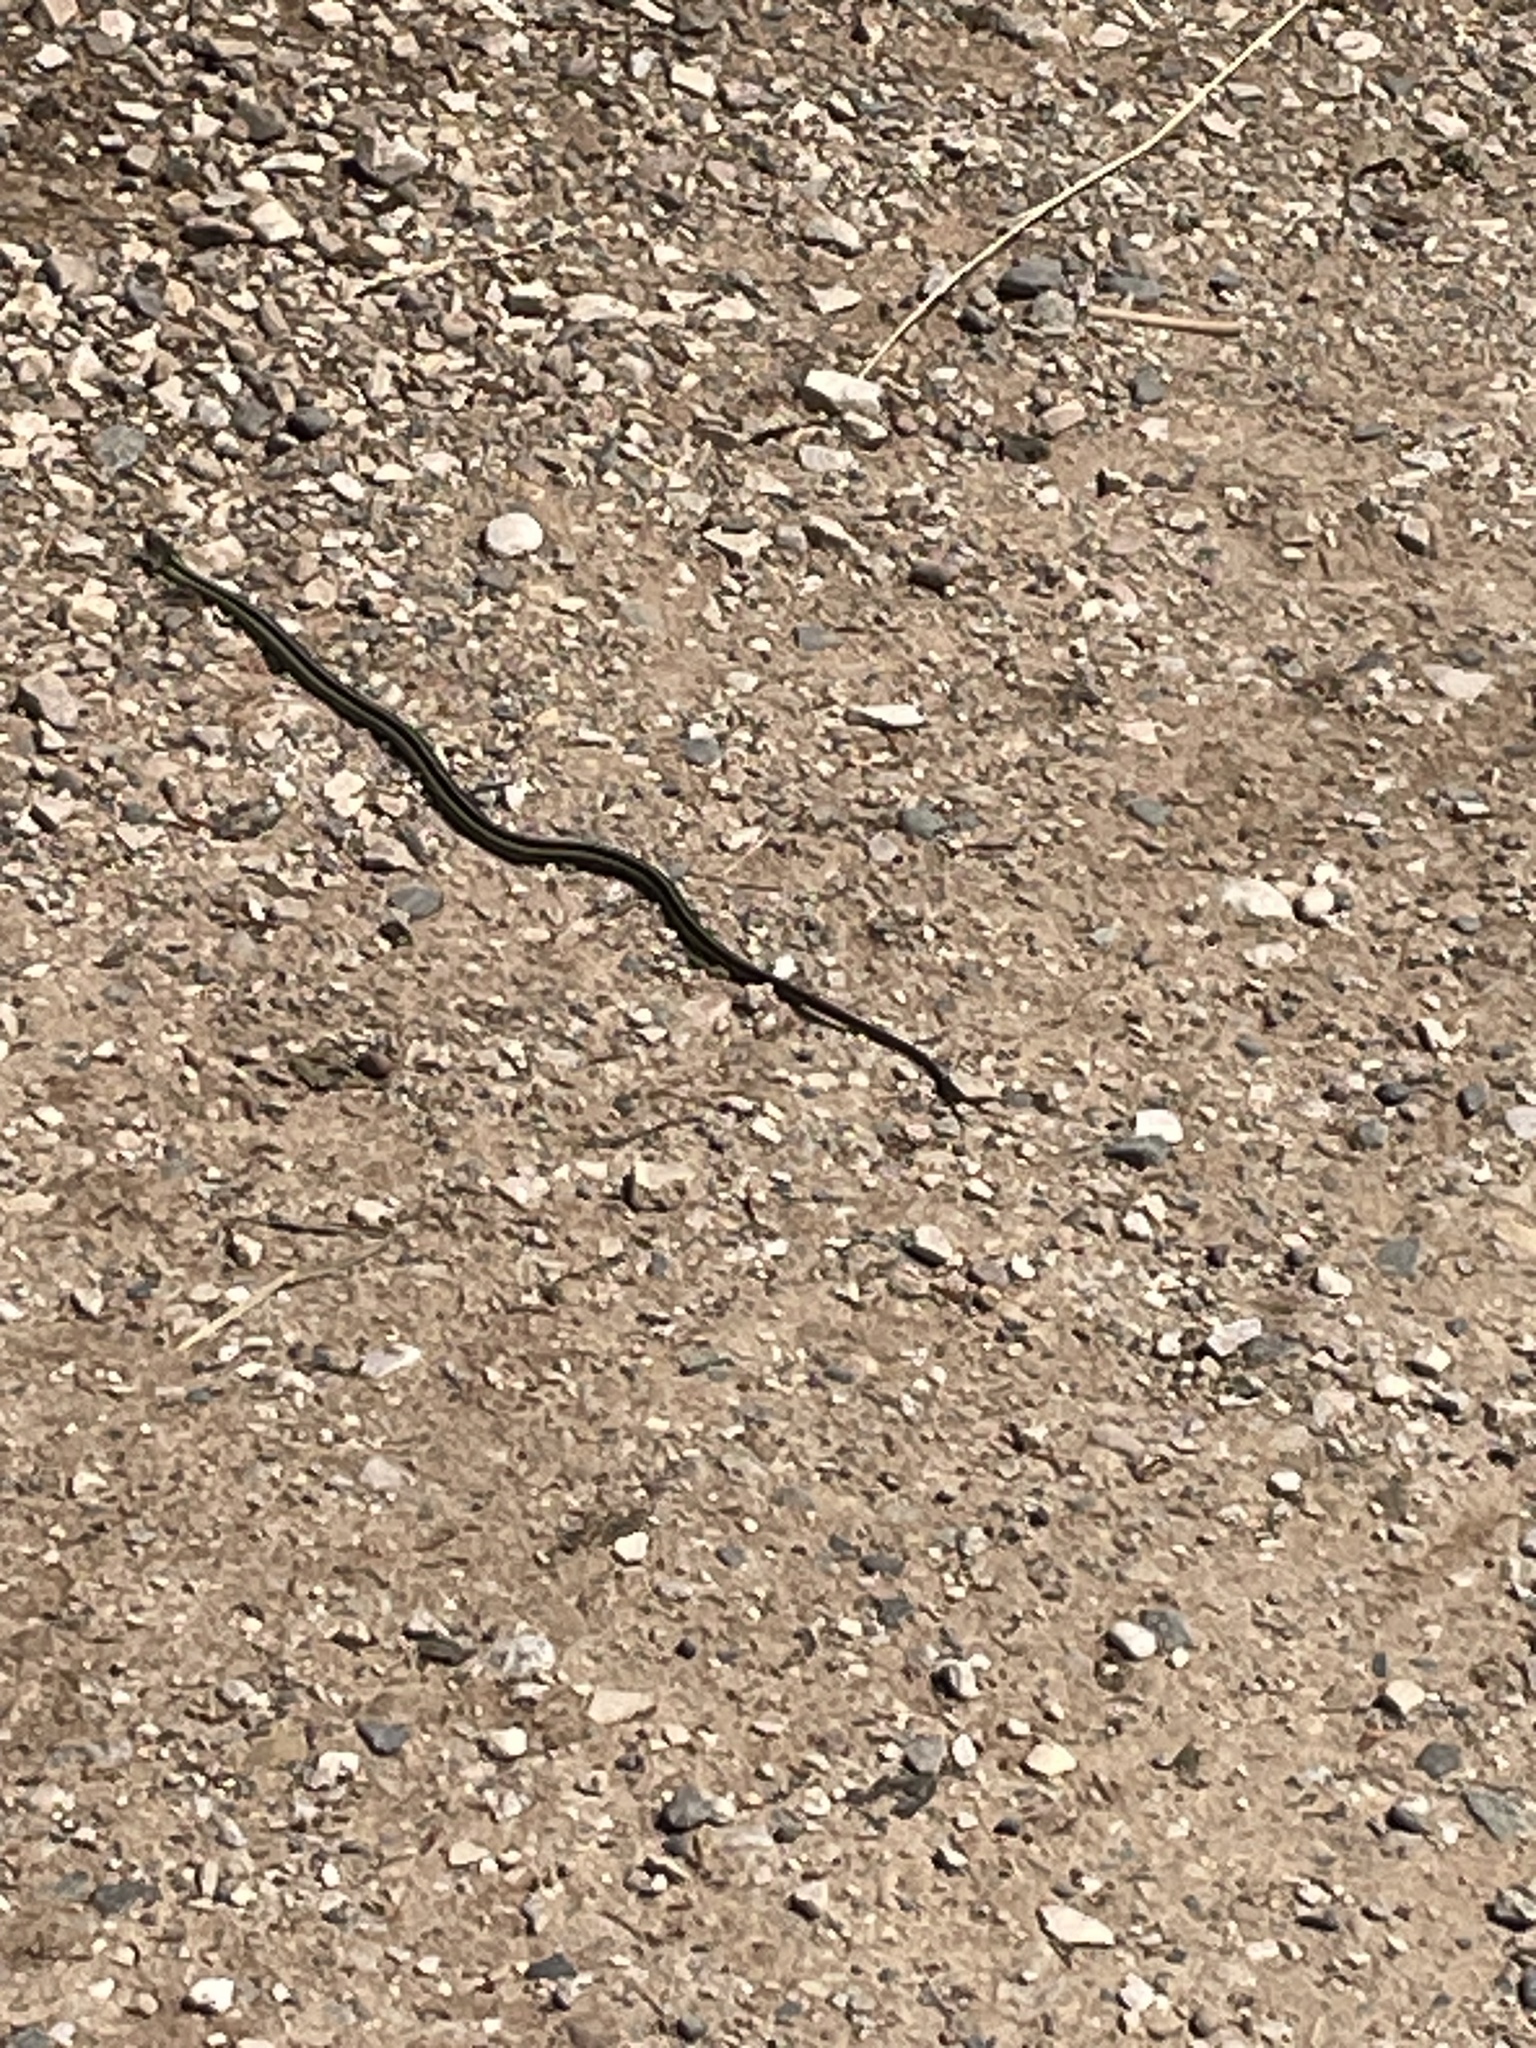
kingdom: Animalia
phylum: Chordata
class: Squamata
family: Colubridae
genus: Thamnophis
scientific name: Thamnophis sirtalis
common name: Common garter snake
